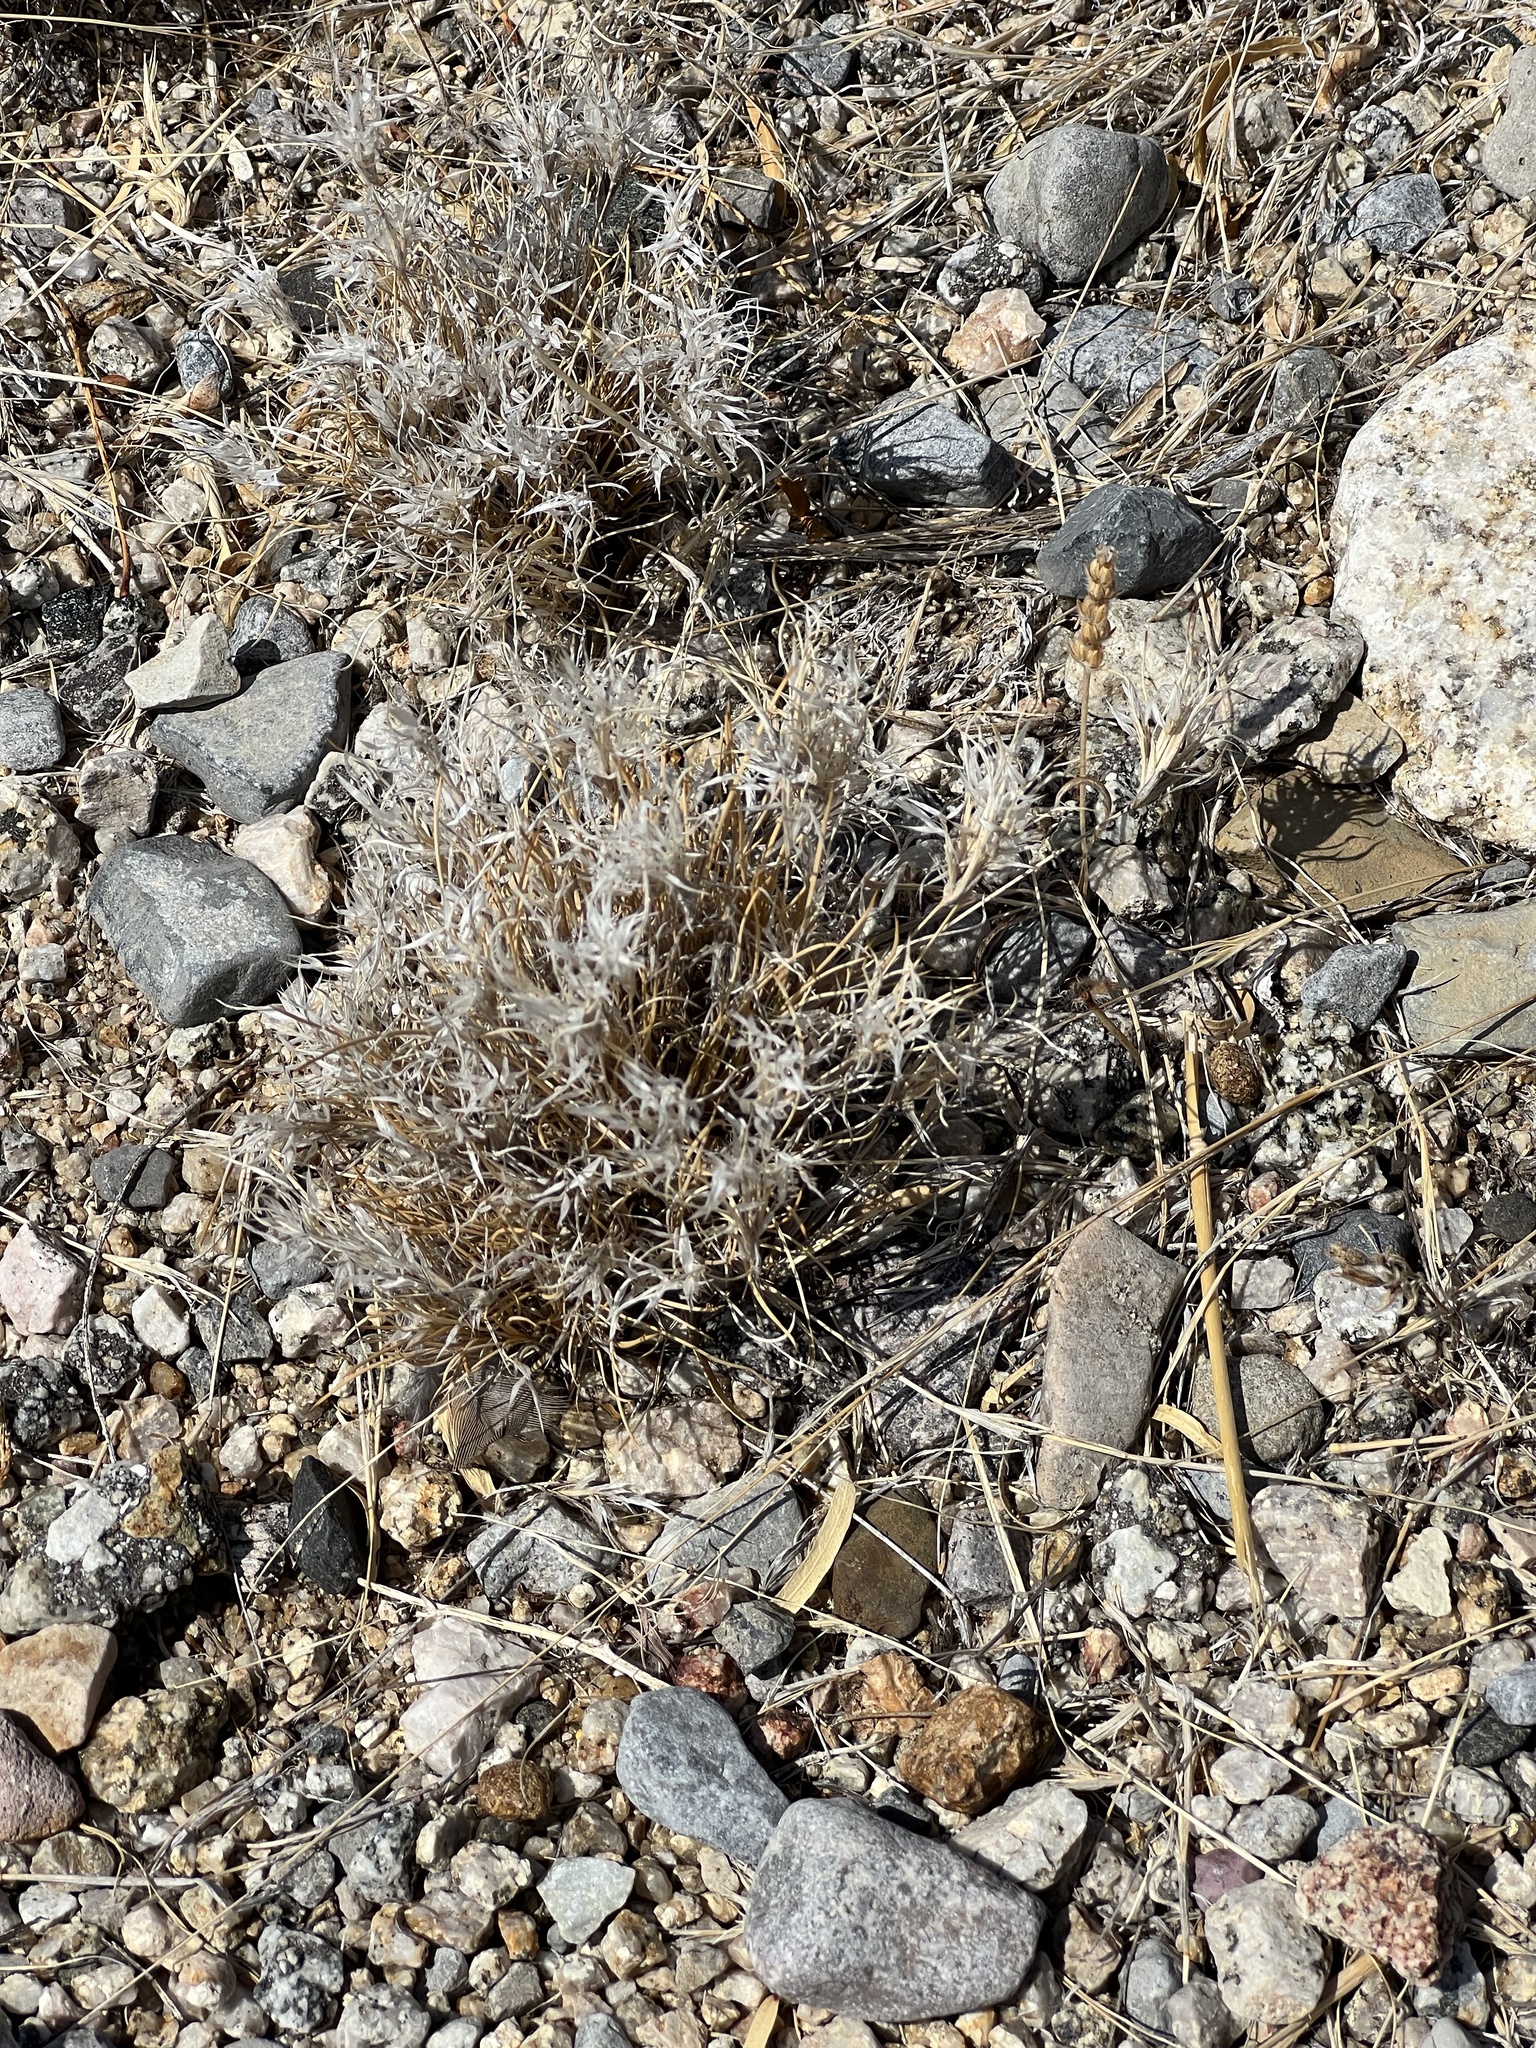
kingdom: Plantae
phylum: Tracheophyta
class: Liliopsida
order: Poales
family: Poaceae
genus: Dasyochloa
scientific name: Dasyochloa pulchella
